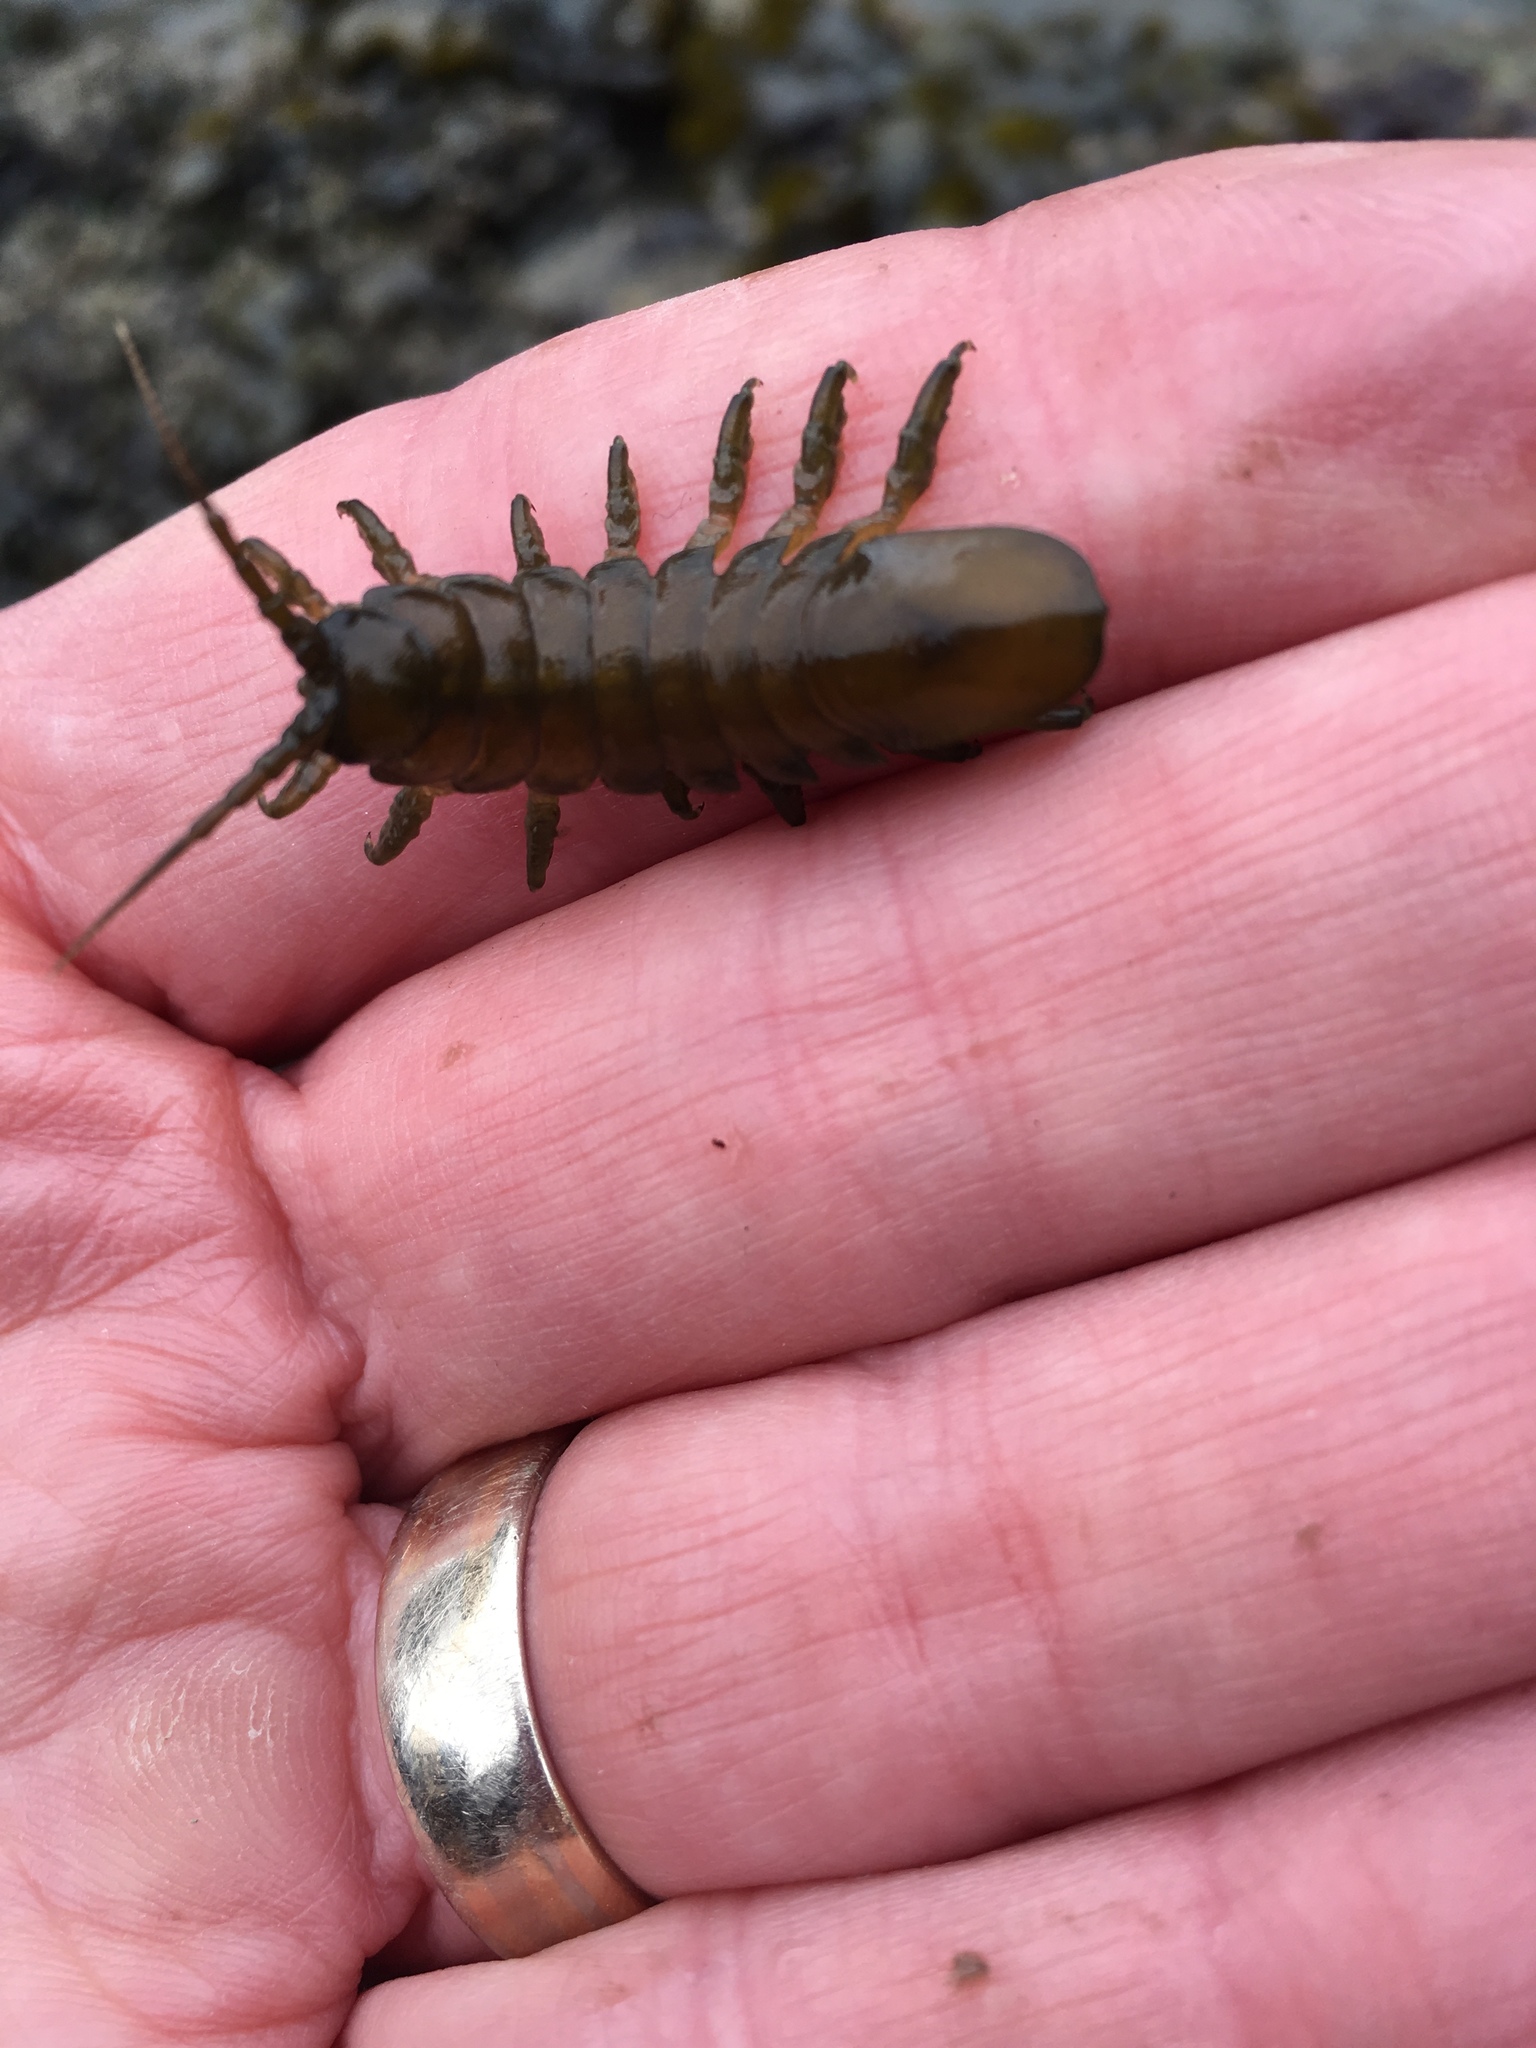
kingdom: Animalia
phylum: Arthropoda
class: Malacostraca
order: Isopoda
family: Idoteidae
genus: Pentidotea
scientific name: Pentidotea wosnesenskii
